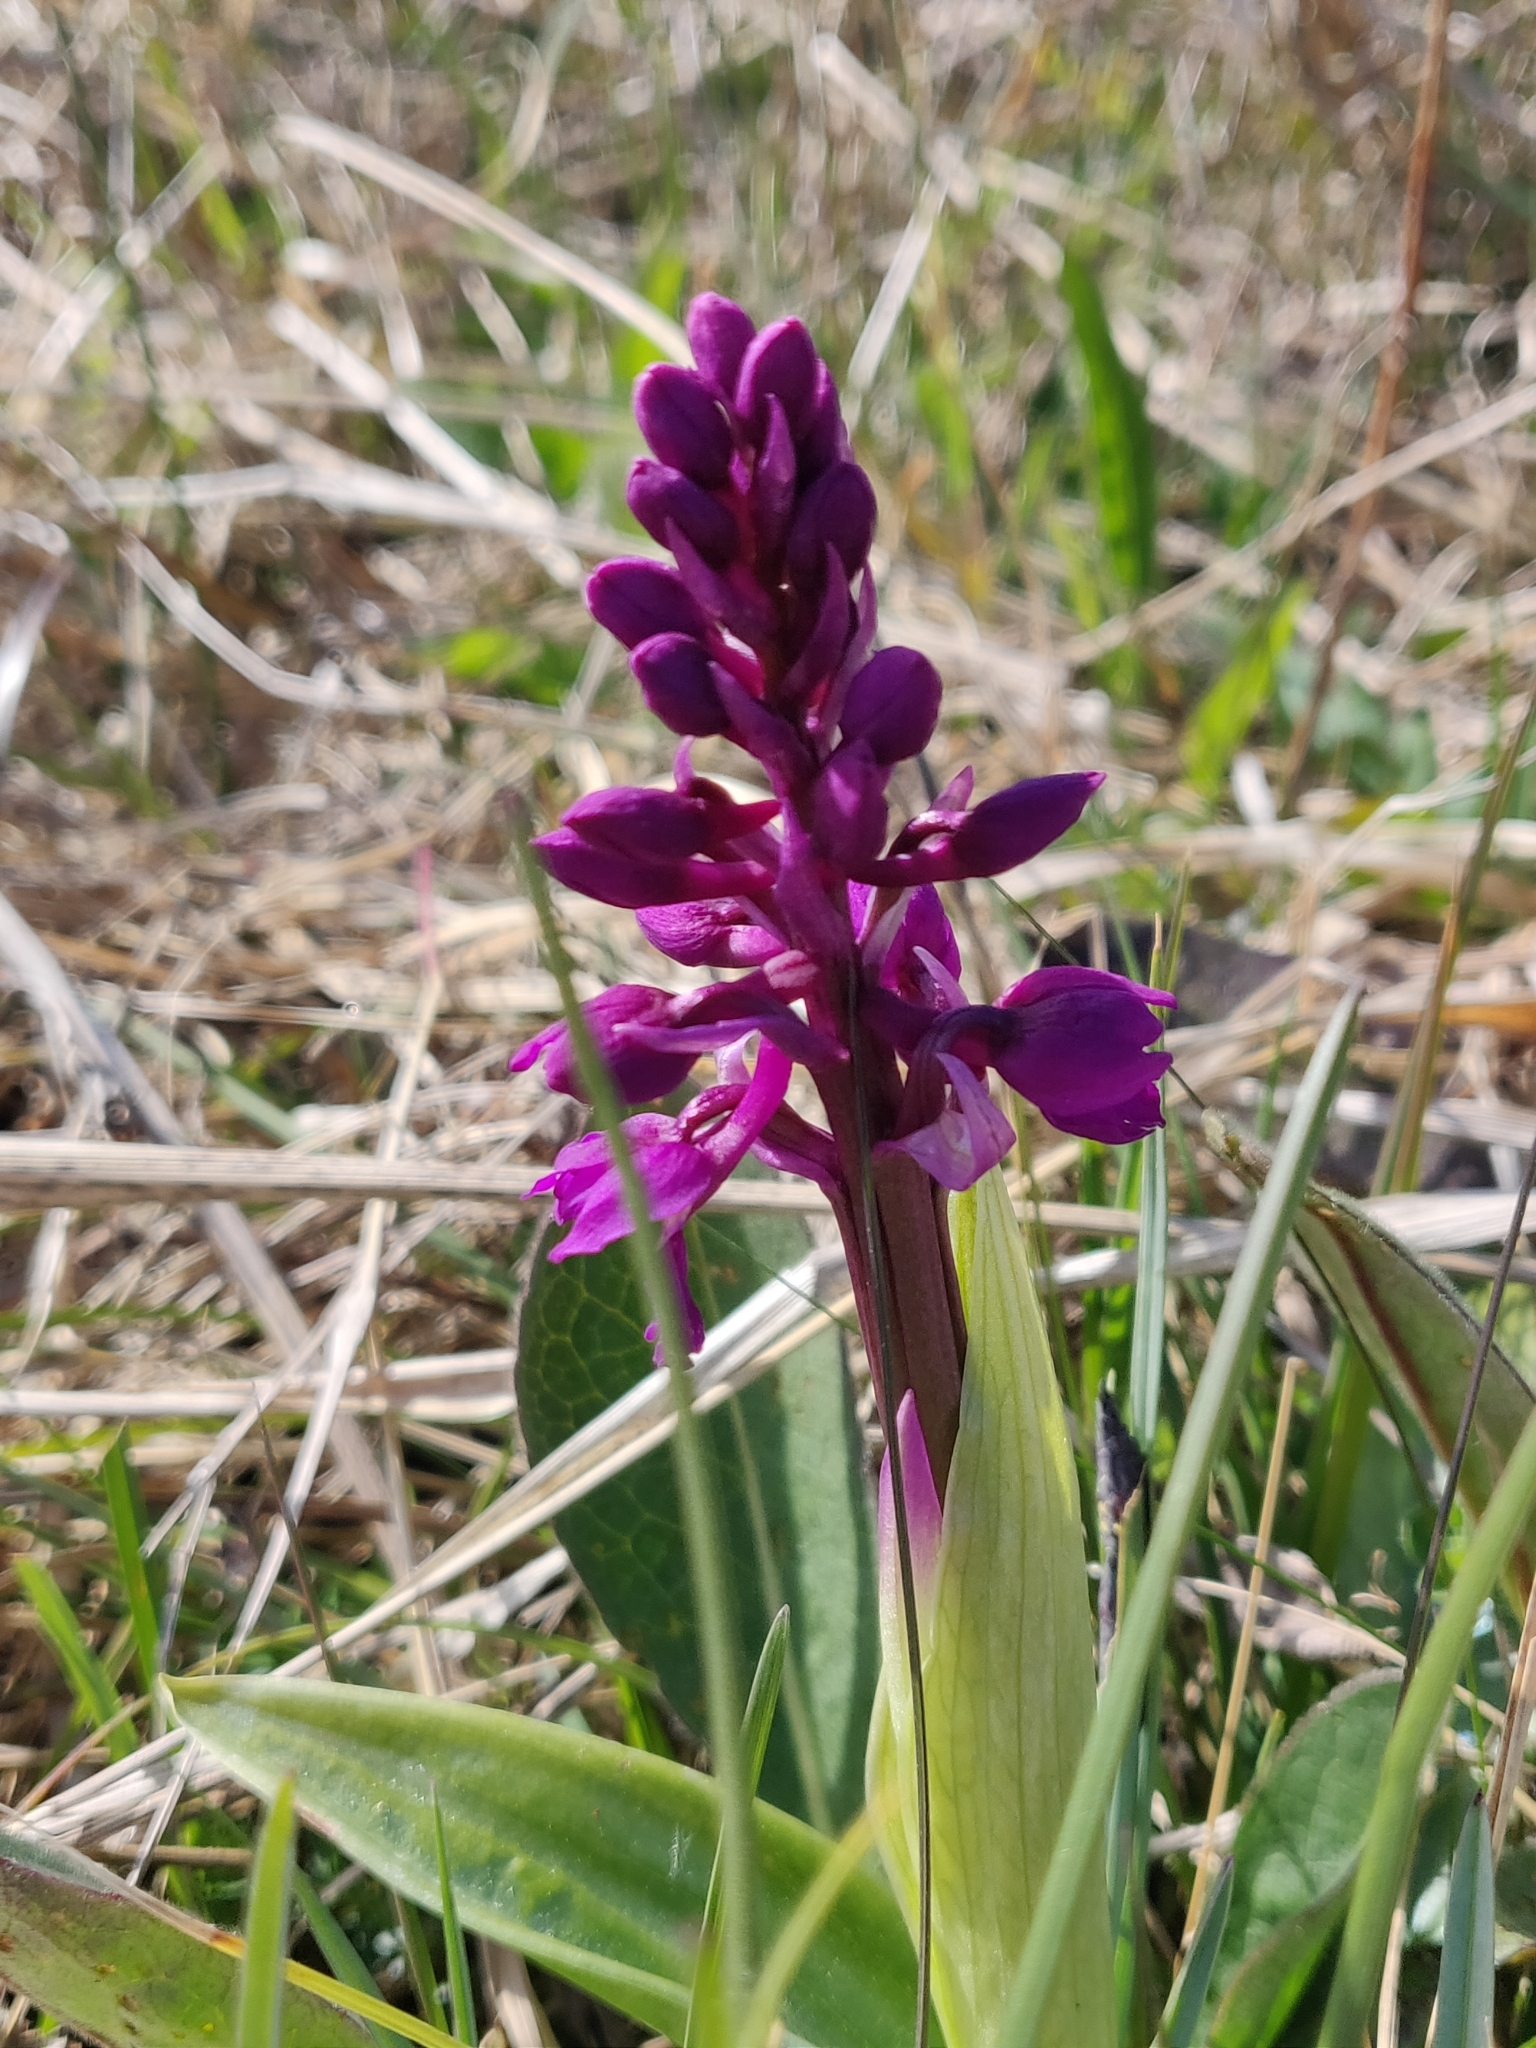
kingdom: Plantae
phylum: Tracheophyta
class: Liliopsida
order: Asparagales
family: Orchidaceae
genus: Orchis
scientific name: Orchis mascula
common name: Early-purple orchid
